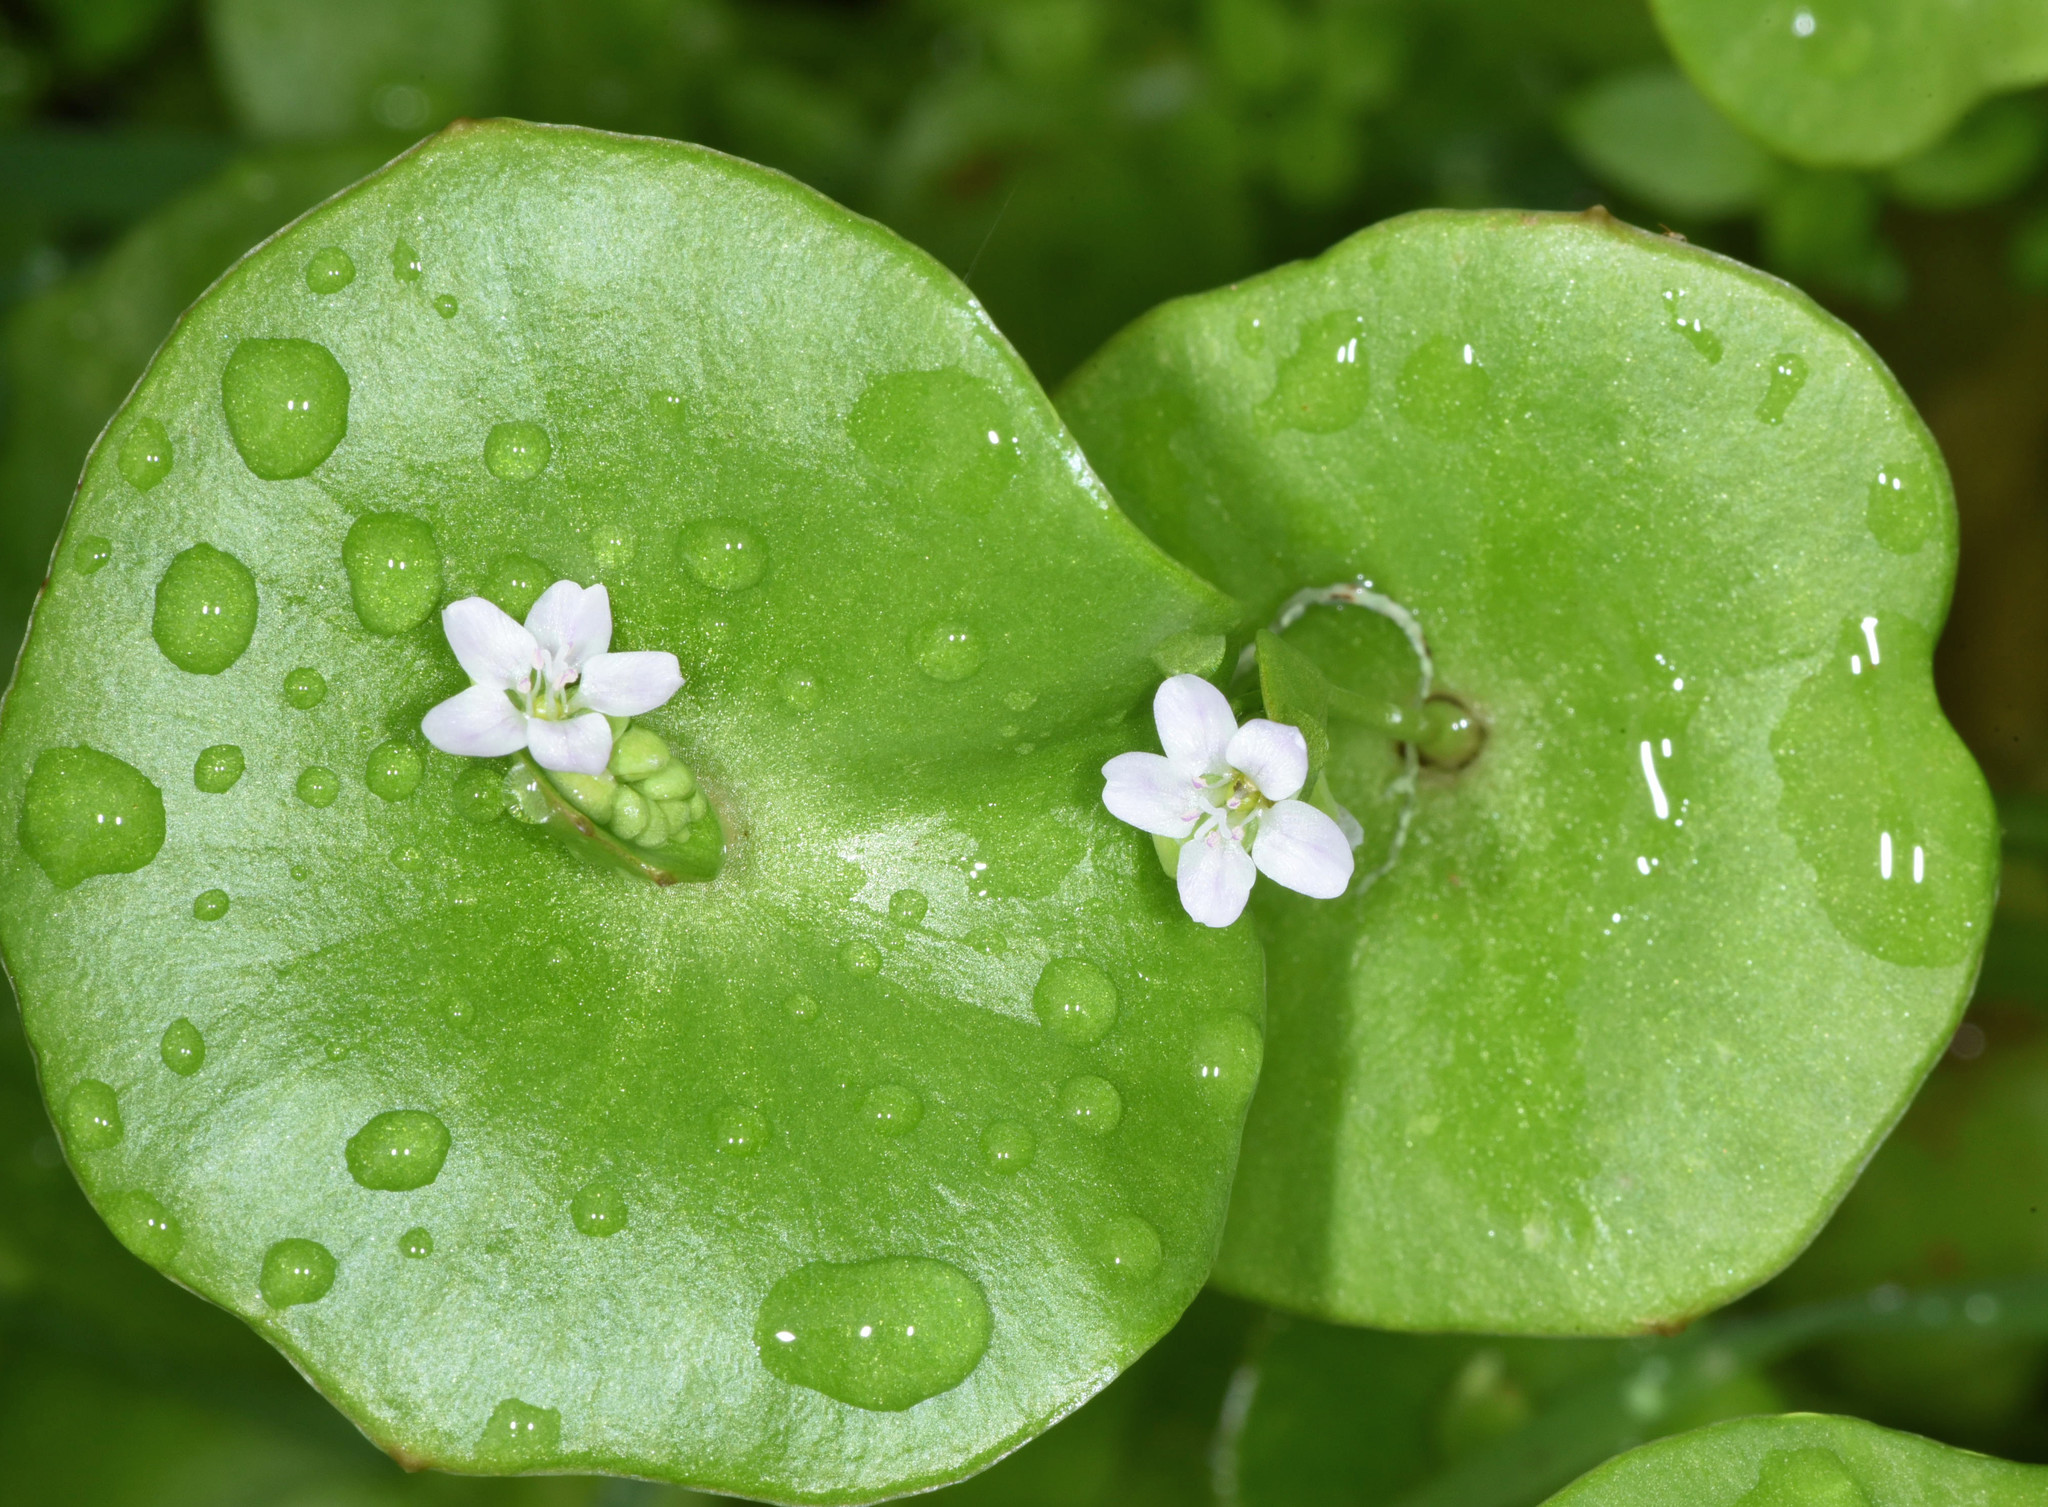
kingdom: Plantae
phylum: Tracheophyta
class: Magnoliopsida
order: Caryophyllales
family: Montiaceae
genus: Claytonia
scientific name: Claytonia perfoliata
